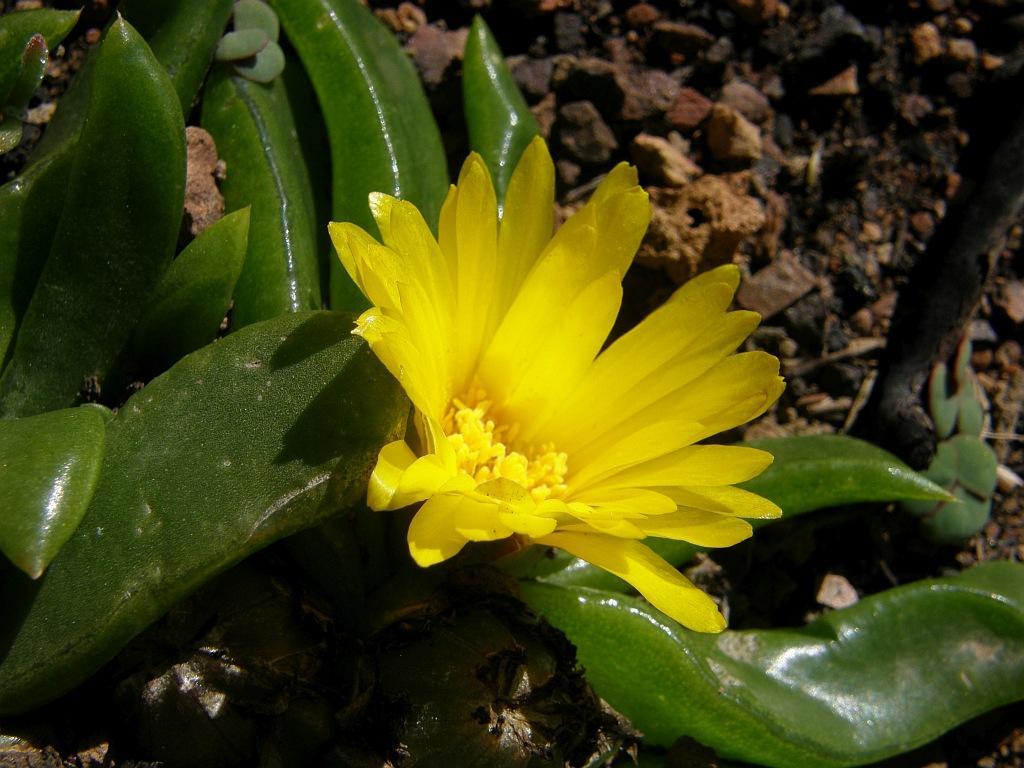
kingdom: Plantae
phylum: Tracheophyta
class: Magnoliopsida
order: Caryophyllales
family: Aizoaceae
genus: Glottiphyllum
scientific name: Glottiphyllum depressum
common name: Fig-marigold
